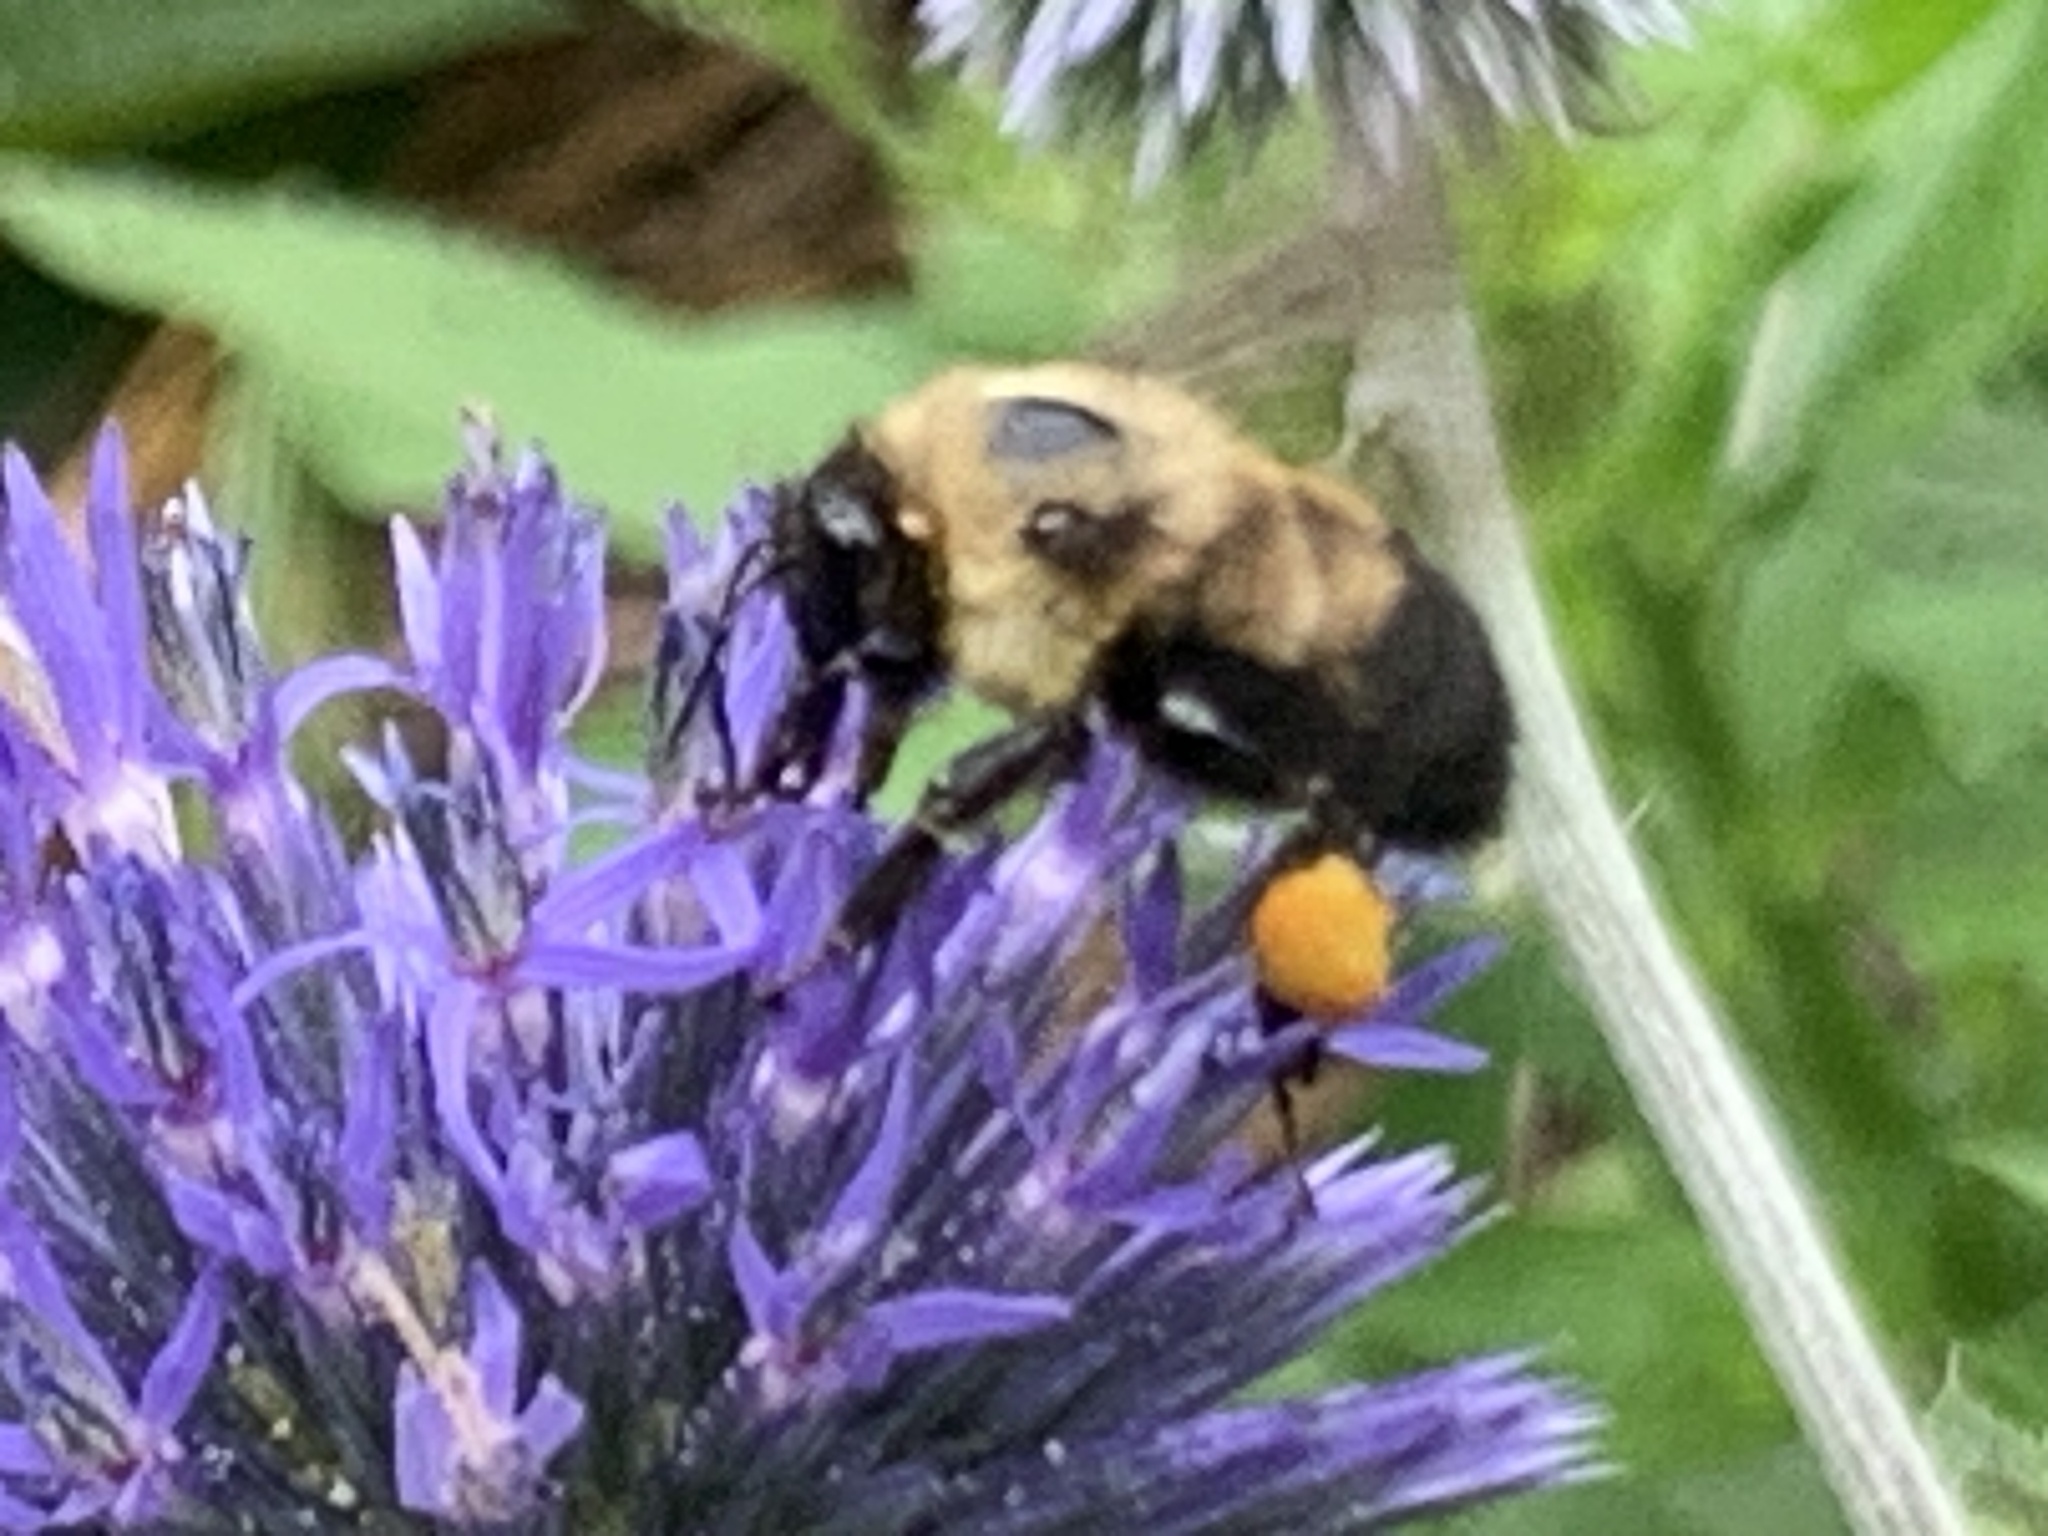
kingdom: Animalia
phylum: Arthropoda
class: Insecta
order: Hymenoptera
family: Apidae
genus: Bombus
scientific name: Bombus griseocollis
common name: Brown-belted bumble bee
